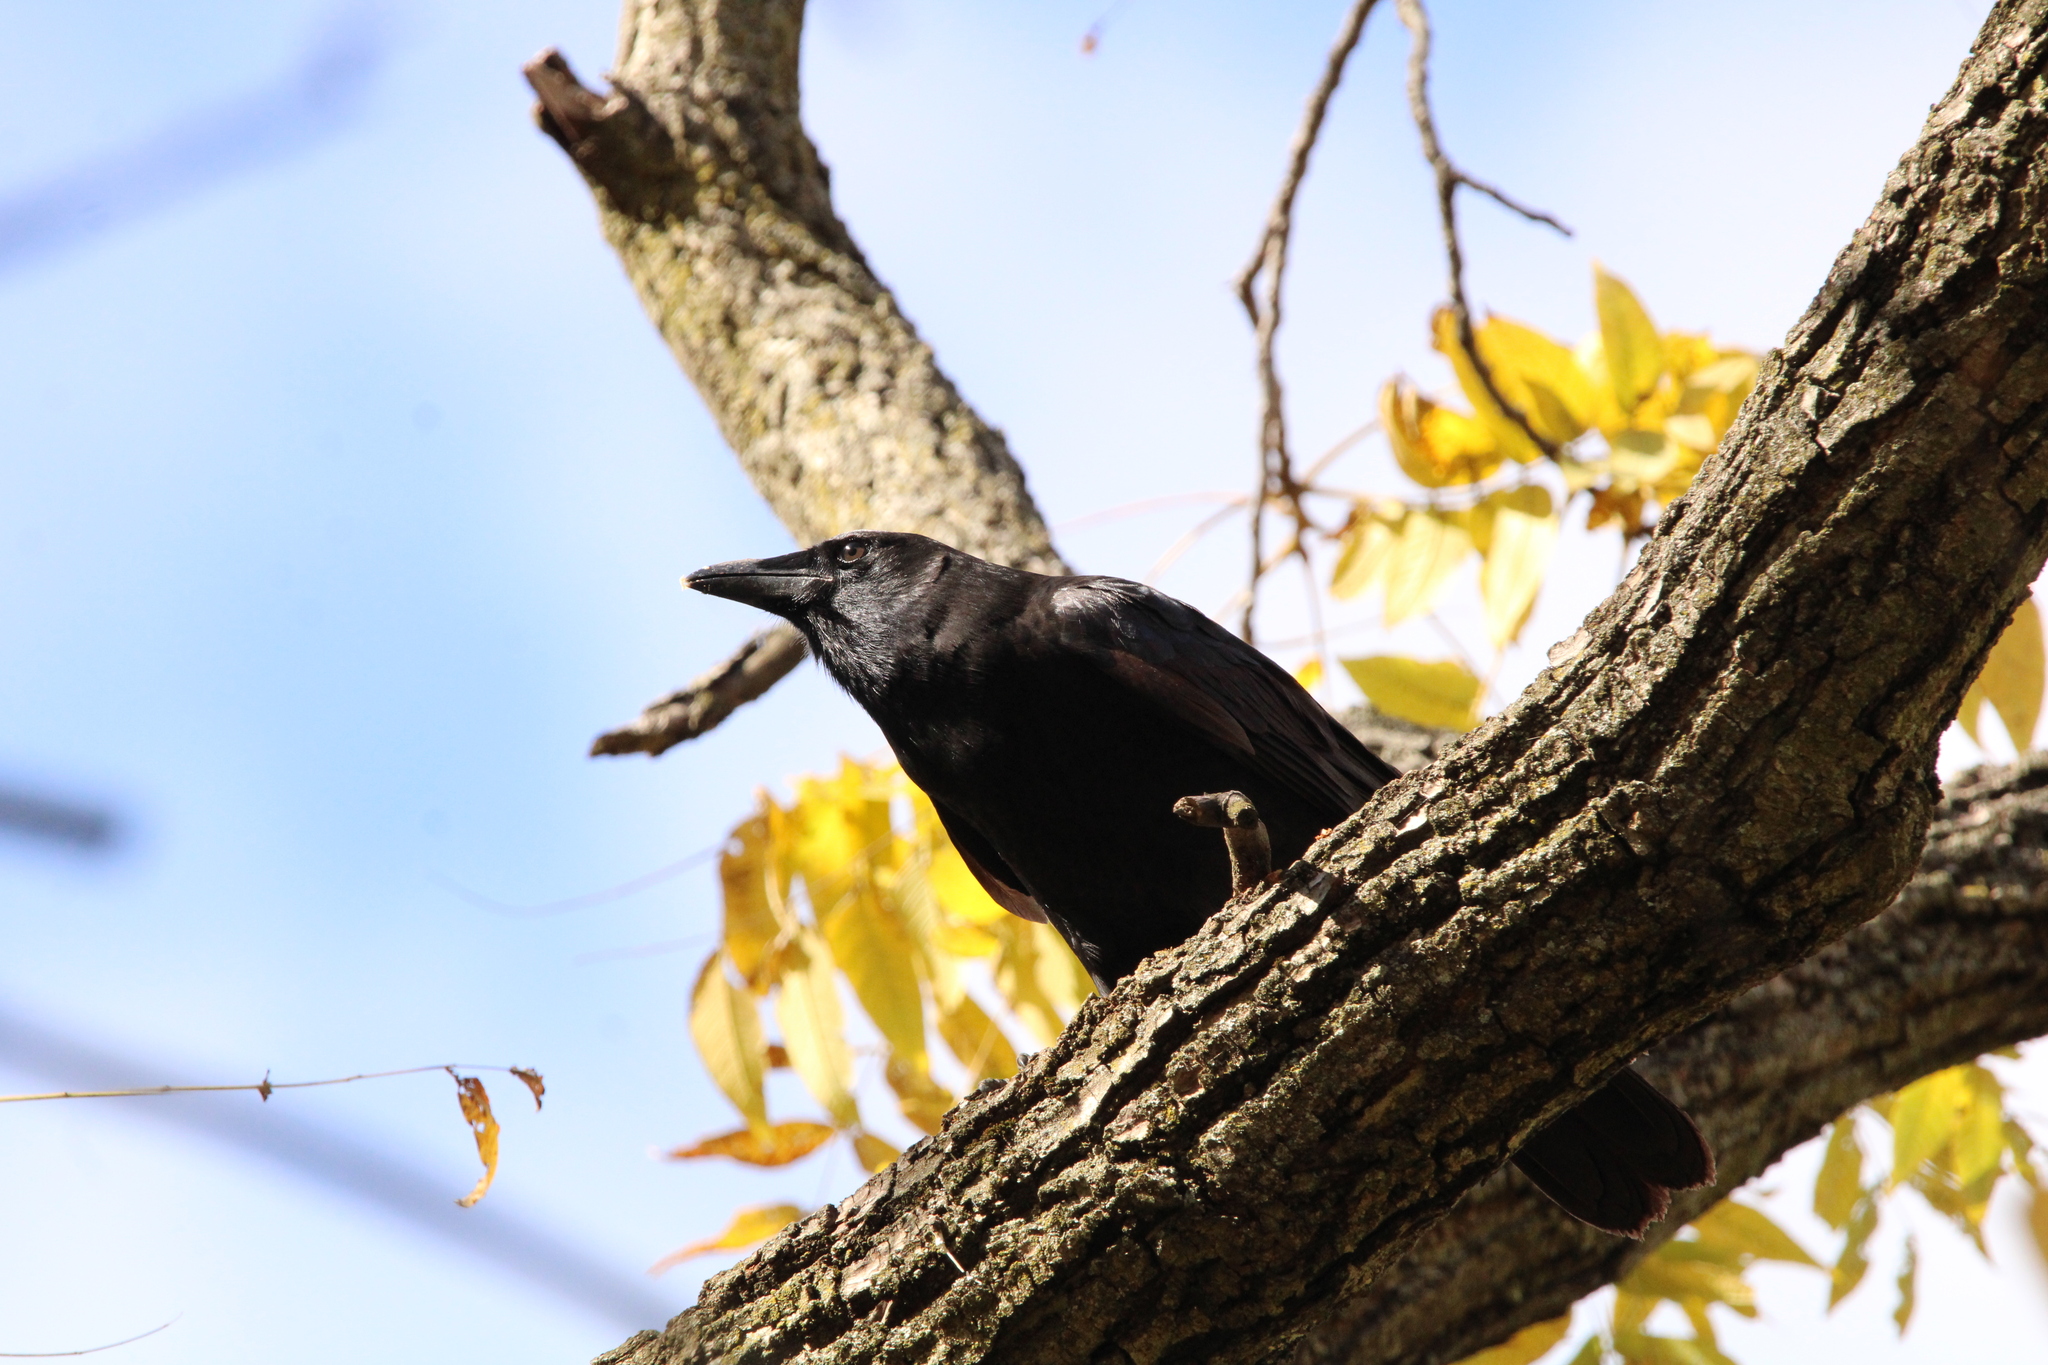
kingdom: Animalia
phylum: Chordata
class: Aves
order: Passeriformes
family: Corvidae
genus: Corvus
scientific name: Corvus brachyrhynchos
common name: American crow
